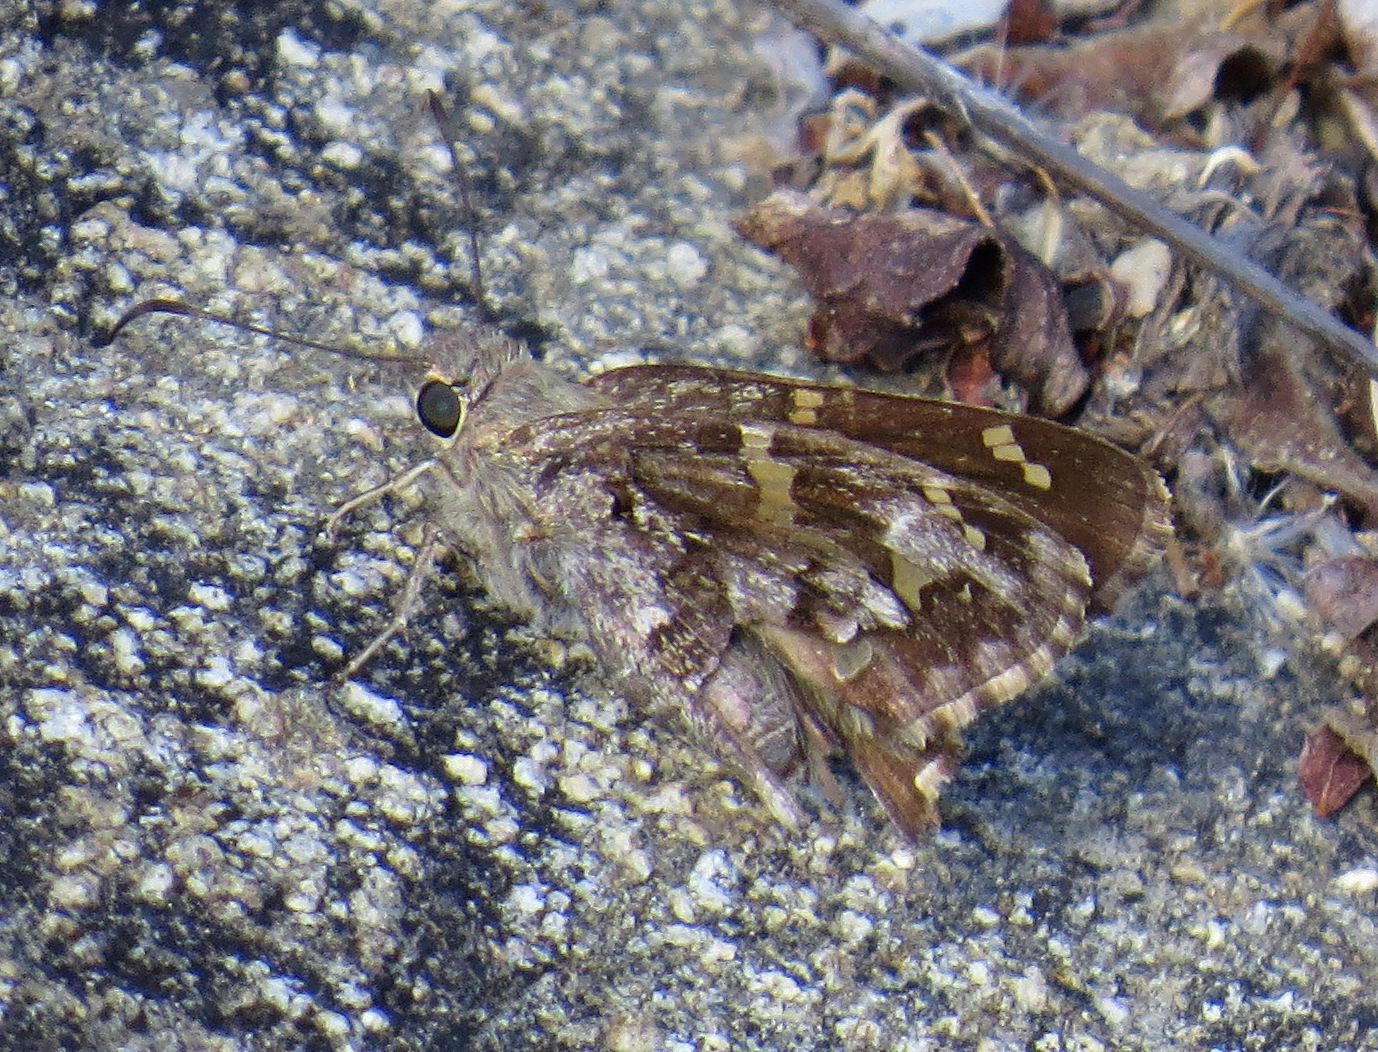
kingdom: Animalia
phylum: Arthropoda
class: Insecta
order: Lepidoptera
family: Hesperiidae
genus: Thorybes
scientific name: Thorybes
